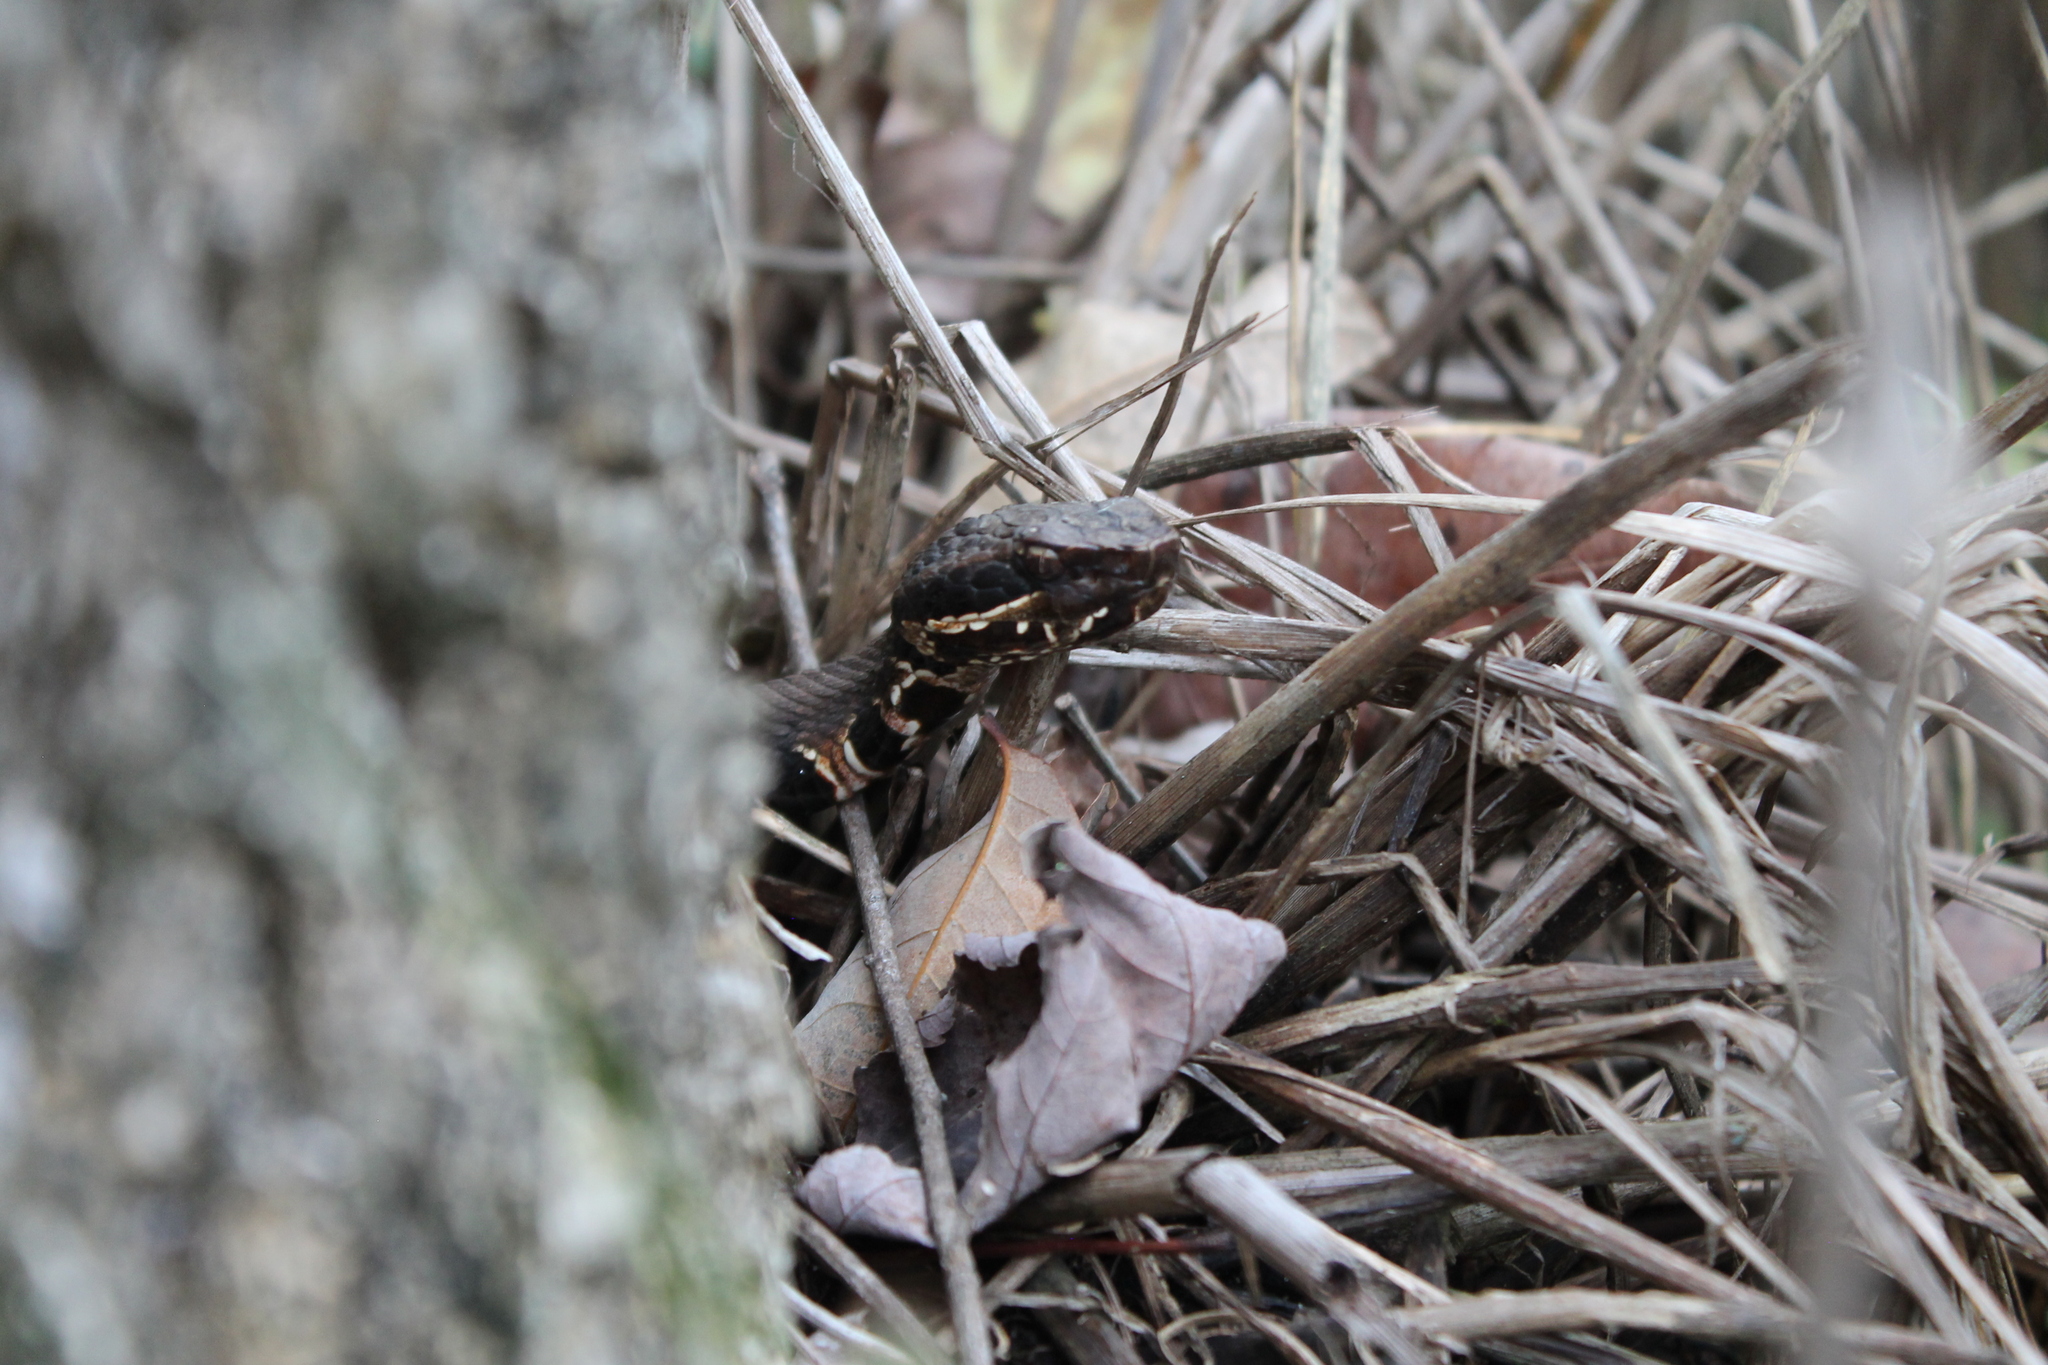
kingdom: Animalia
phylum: Chordata
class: Squamata
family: Viperidae
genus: Agkistrodon
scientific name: Agkistrodon piscivorus
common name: Cottonmouth
